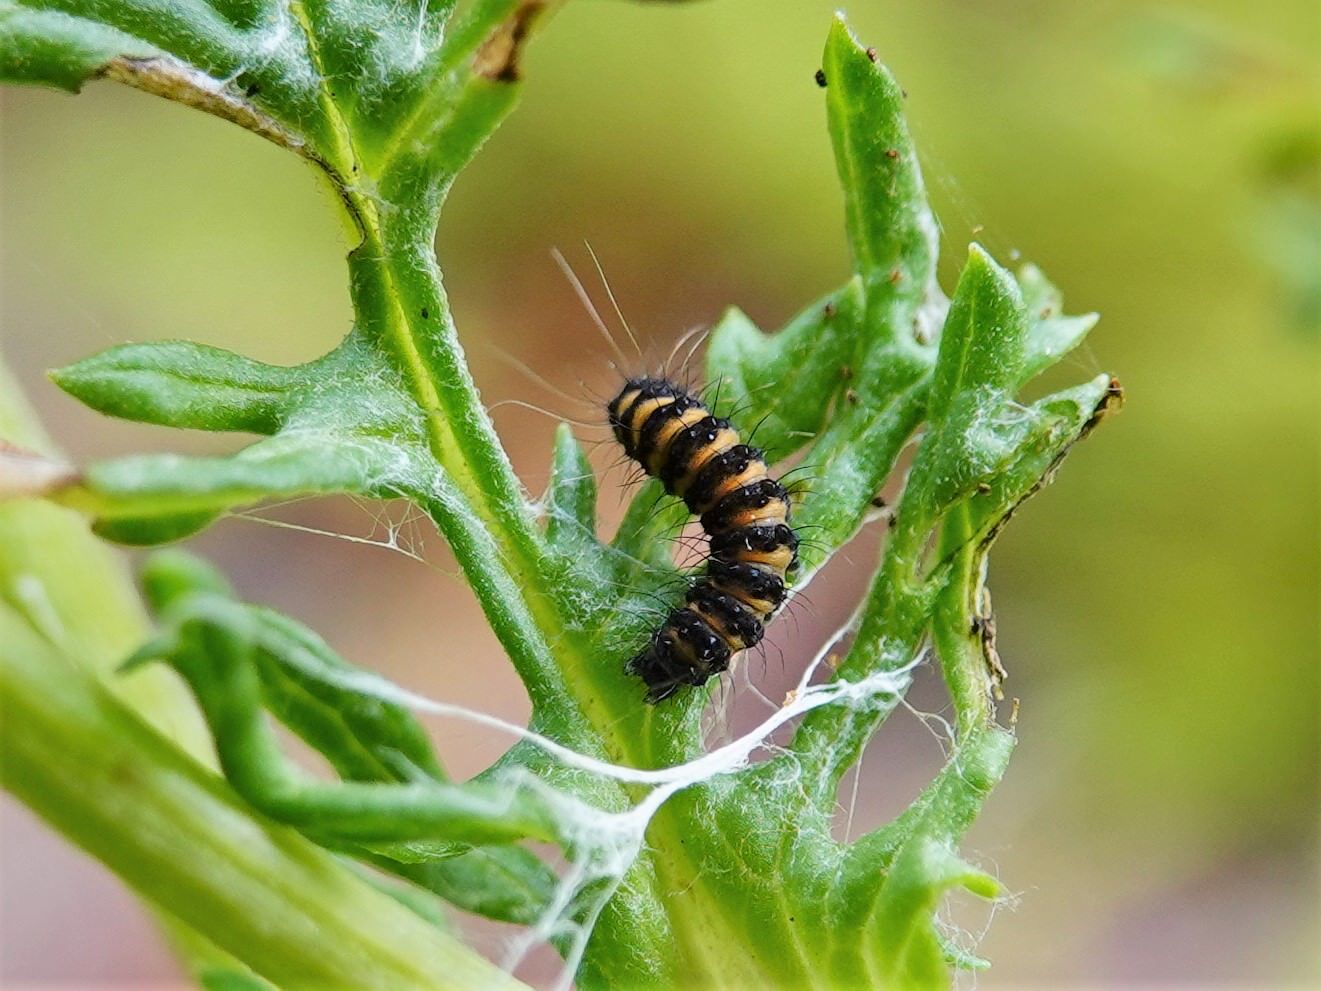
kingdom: Animalia
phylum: Arthropoda
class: Insecta
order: Lepidoptera
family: Erebidae
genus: Tyria
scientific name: Tyria jacobaeae
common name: Cinnabar
